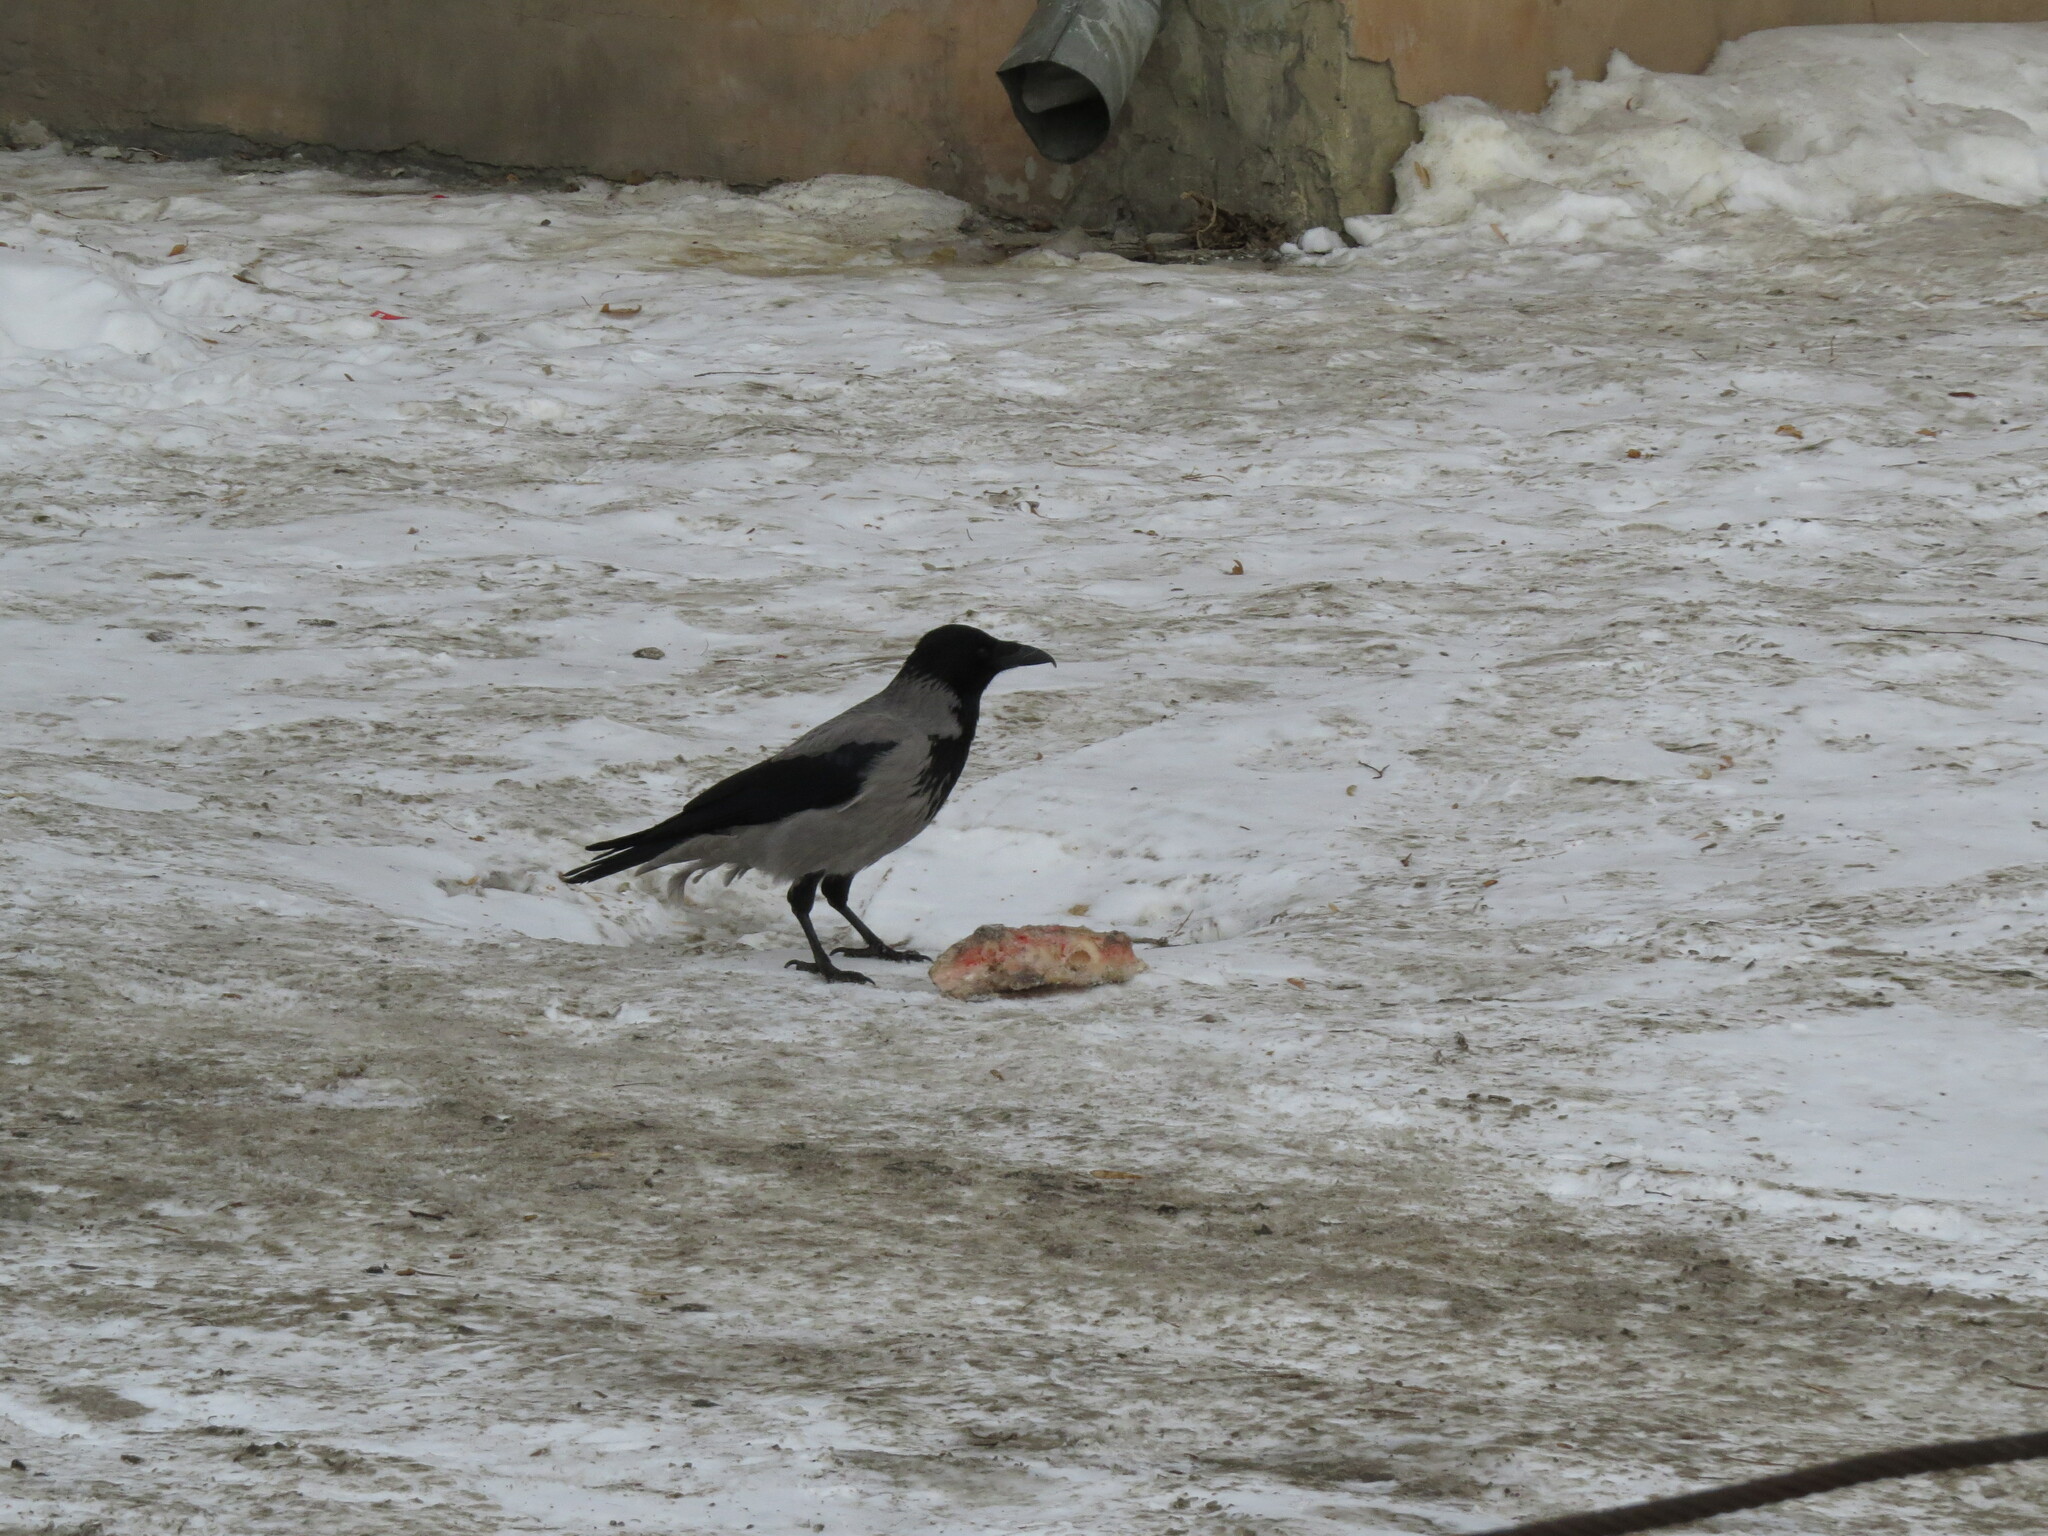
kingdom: Animalia
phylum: Chordata
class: Aves
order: Passeriformes
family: Corvidae
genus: Corvus
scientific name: Corvus cornix
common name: Hooded crow
